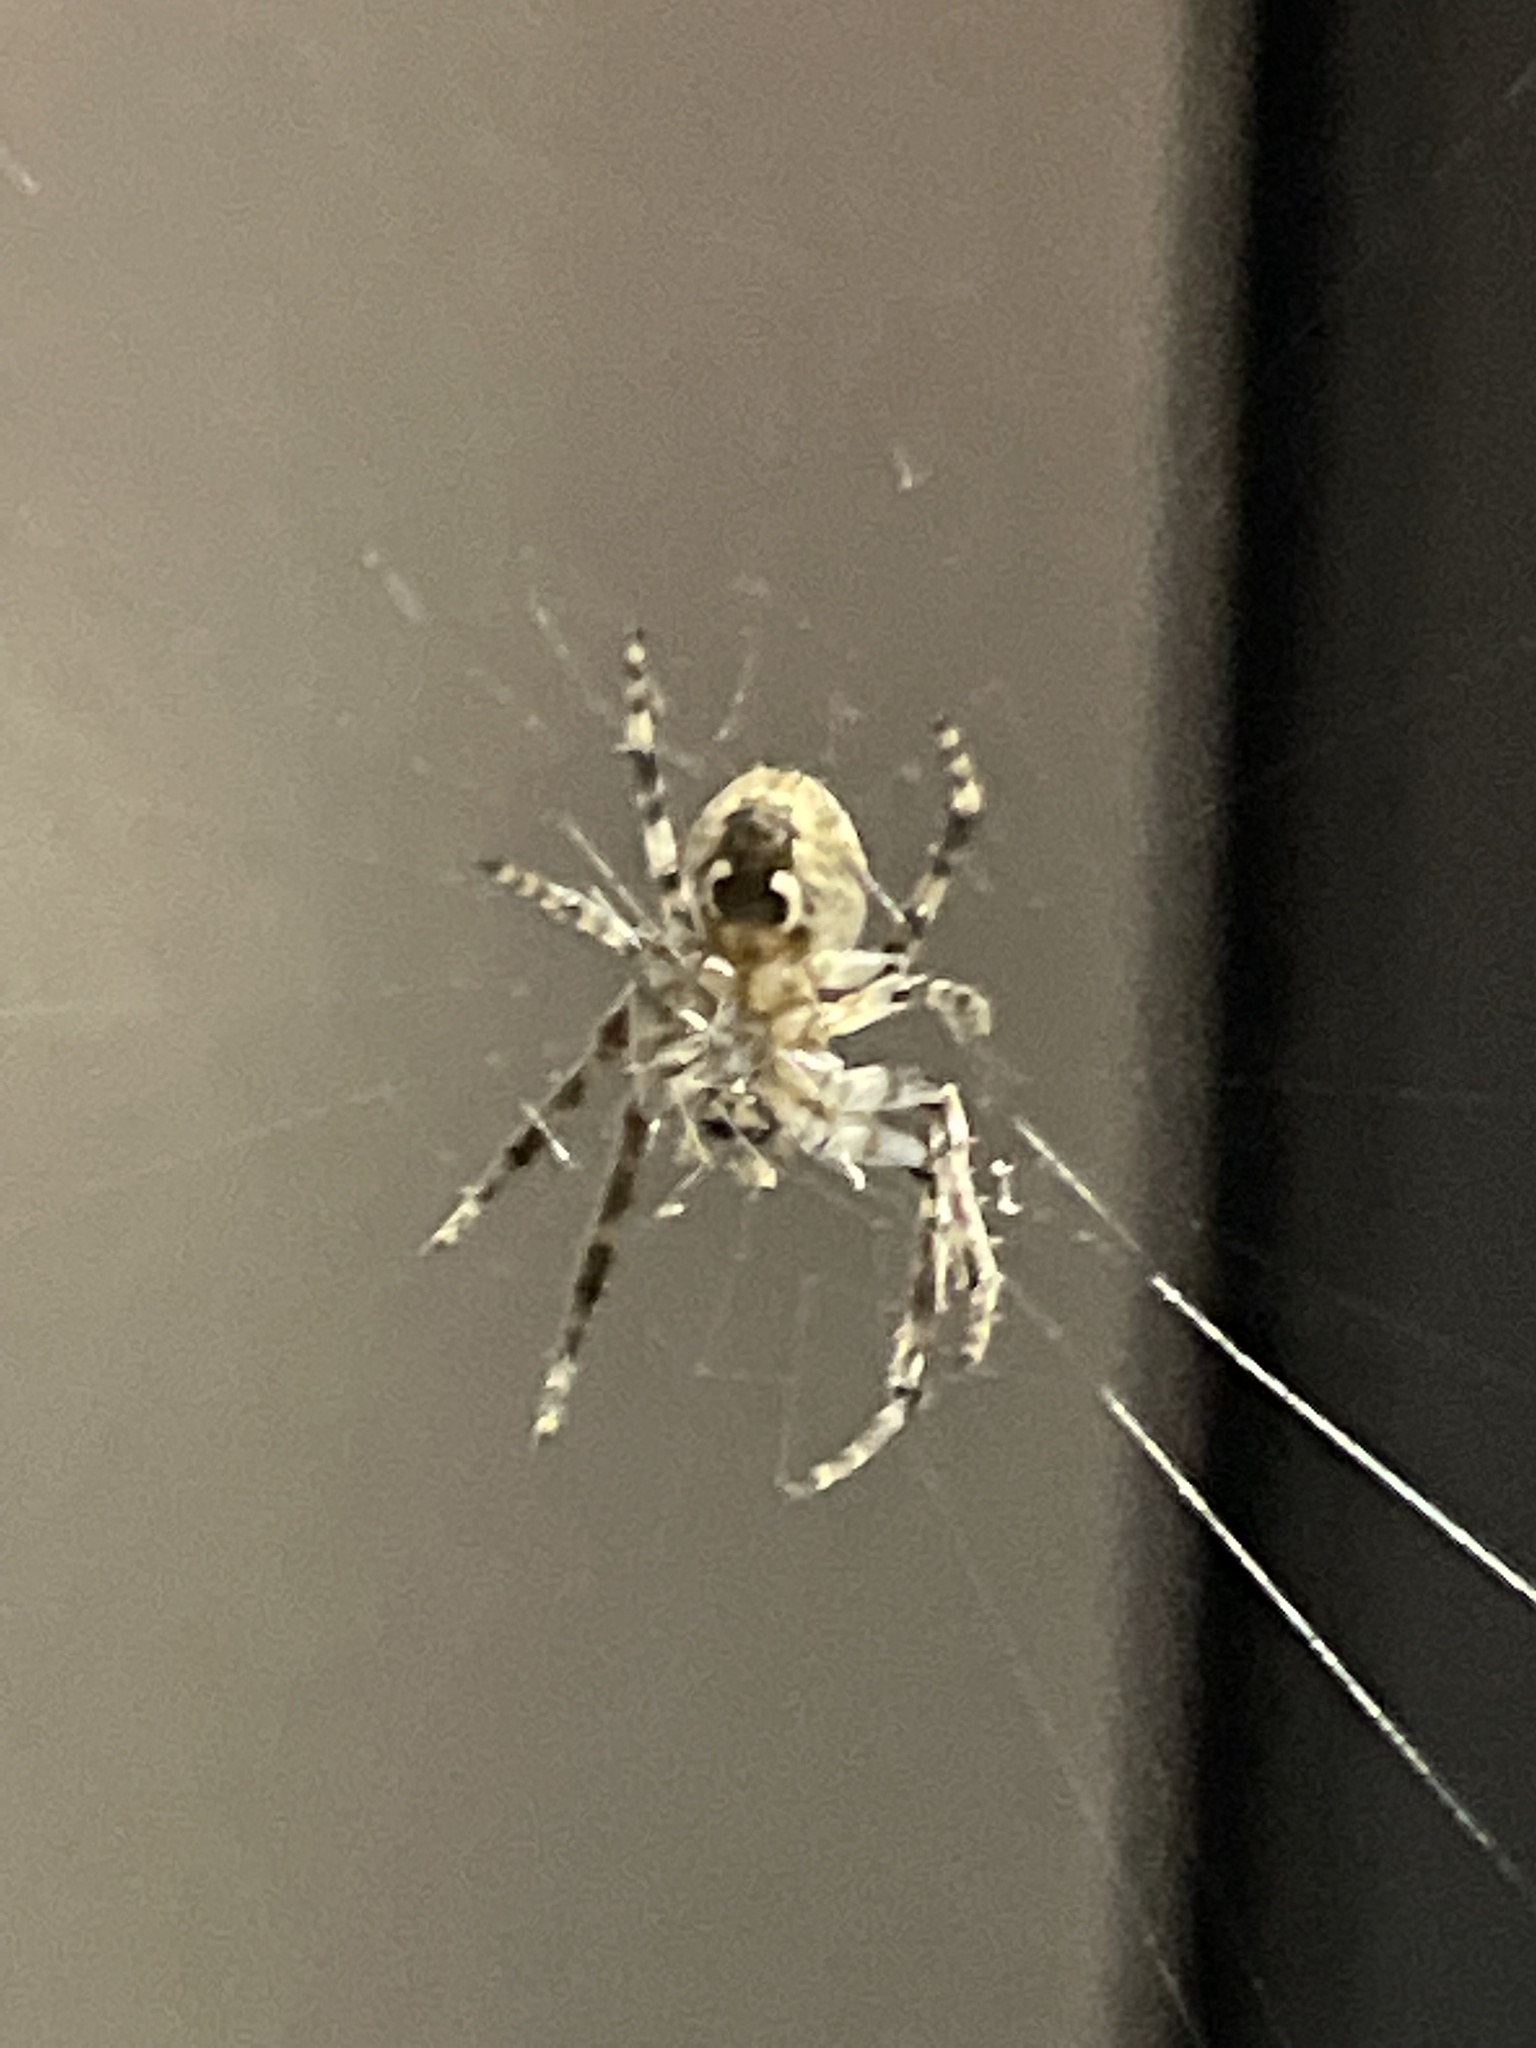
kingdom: Animalia
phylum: Arthropoda
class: Arachnida
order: Araneae
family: Araneidae
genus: Larinioides
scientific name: Larinioides sclopetarius
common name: Bridge orbweaver
